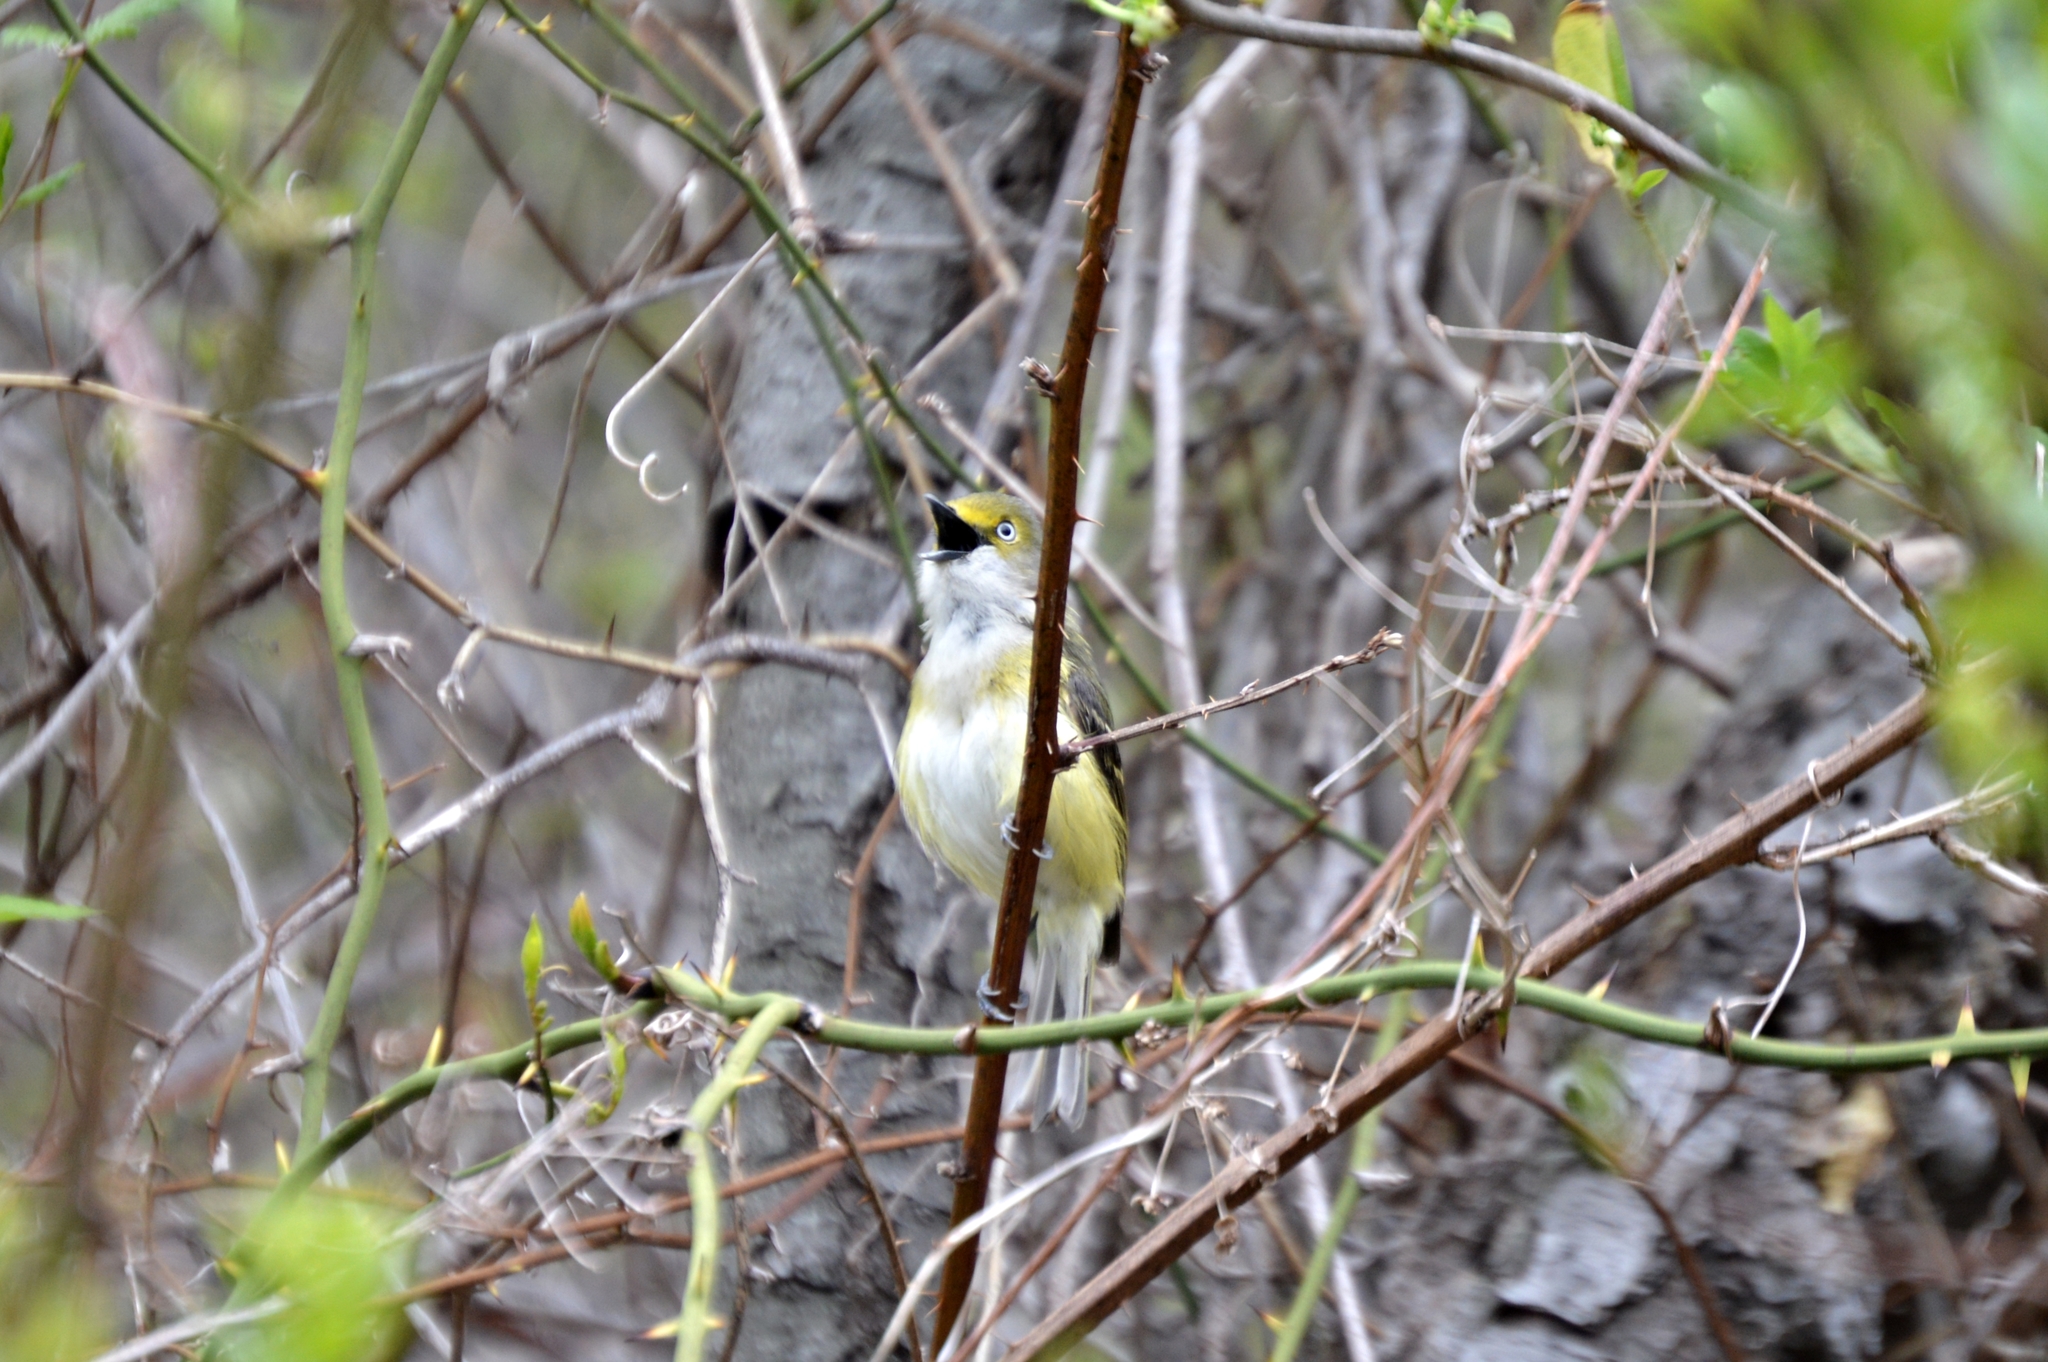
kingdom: Animalia
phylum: Chordata
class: Aves
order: Passeriformes
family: Vireonidae
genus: Vireo
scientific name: Vireo griseus
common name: White-eyed vireo
